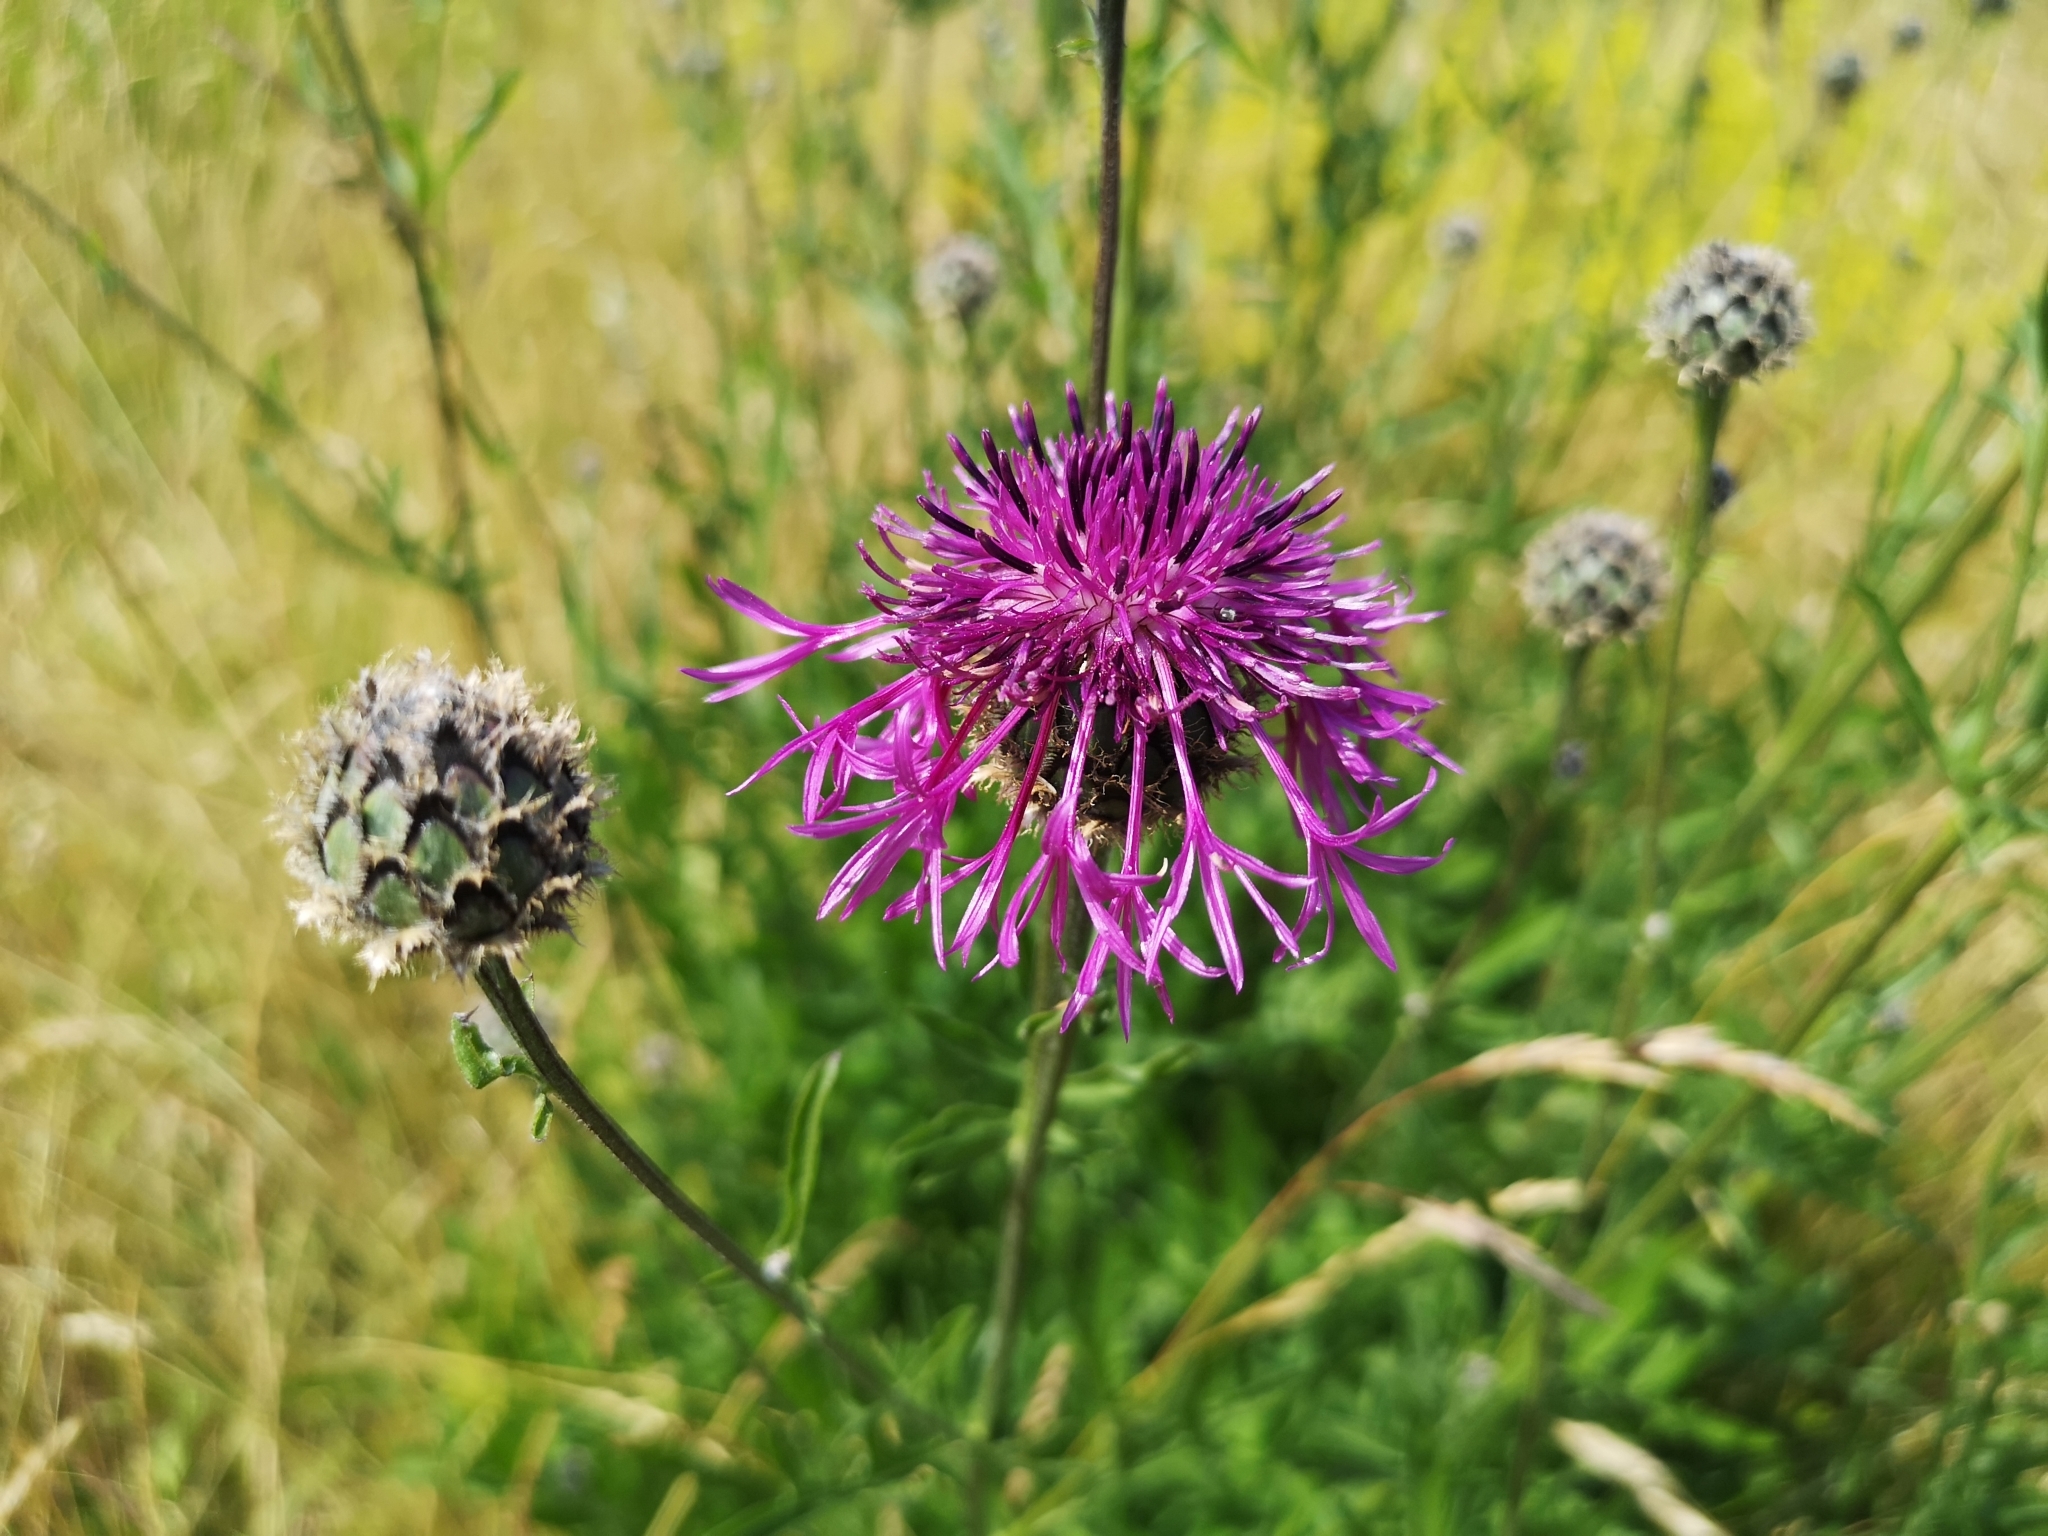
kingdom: Plantae
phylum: Tracheophyta
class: Magnoliopsida
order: Asterales
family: Asteraceae
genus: Centaurea
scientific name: Centaurea scabiosa
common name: Greater knapweed
